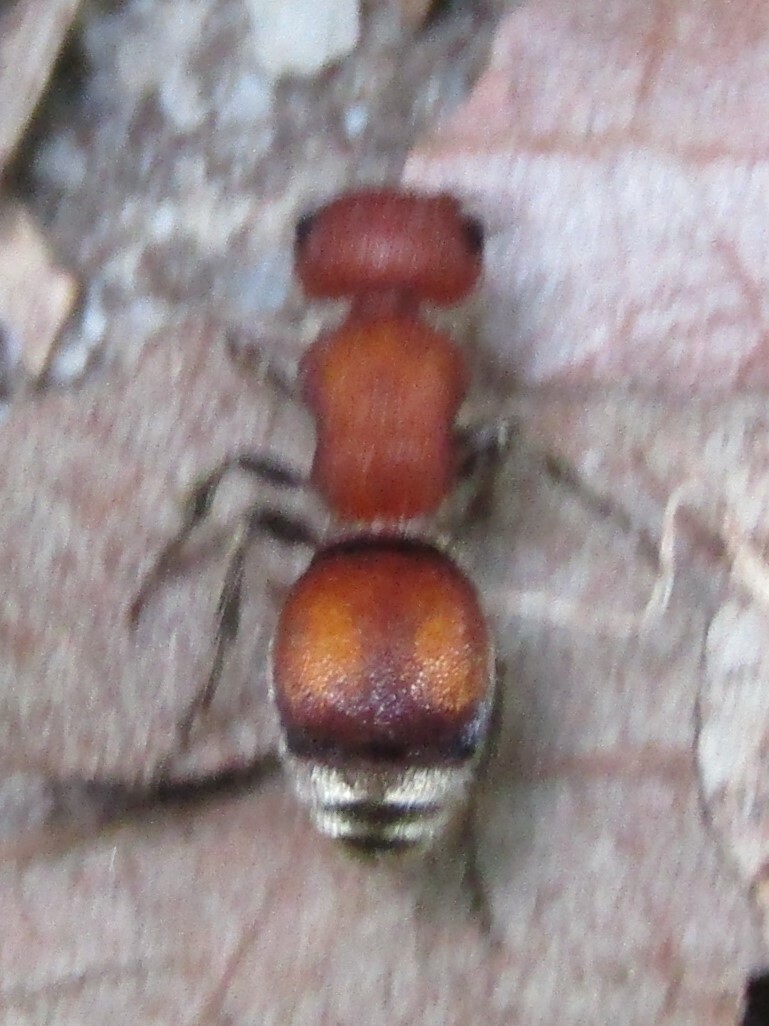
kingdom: Animalia
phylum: Arthropoda
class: Insecta
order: Hymenoptera
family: Mutillidae
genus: Pseudomethoca
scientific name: Pseudomethoca
